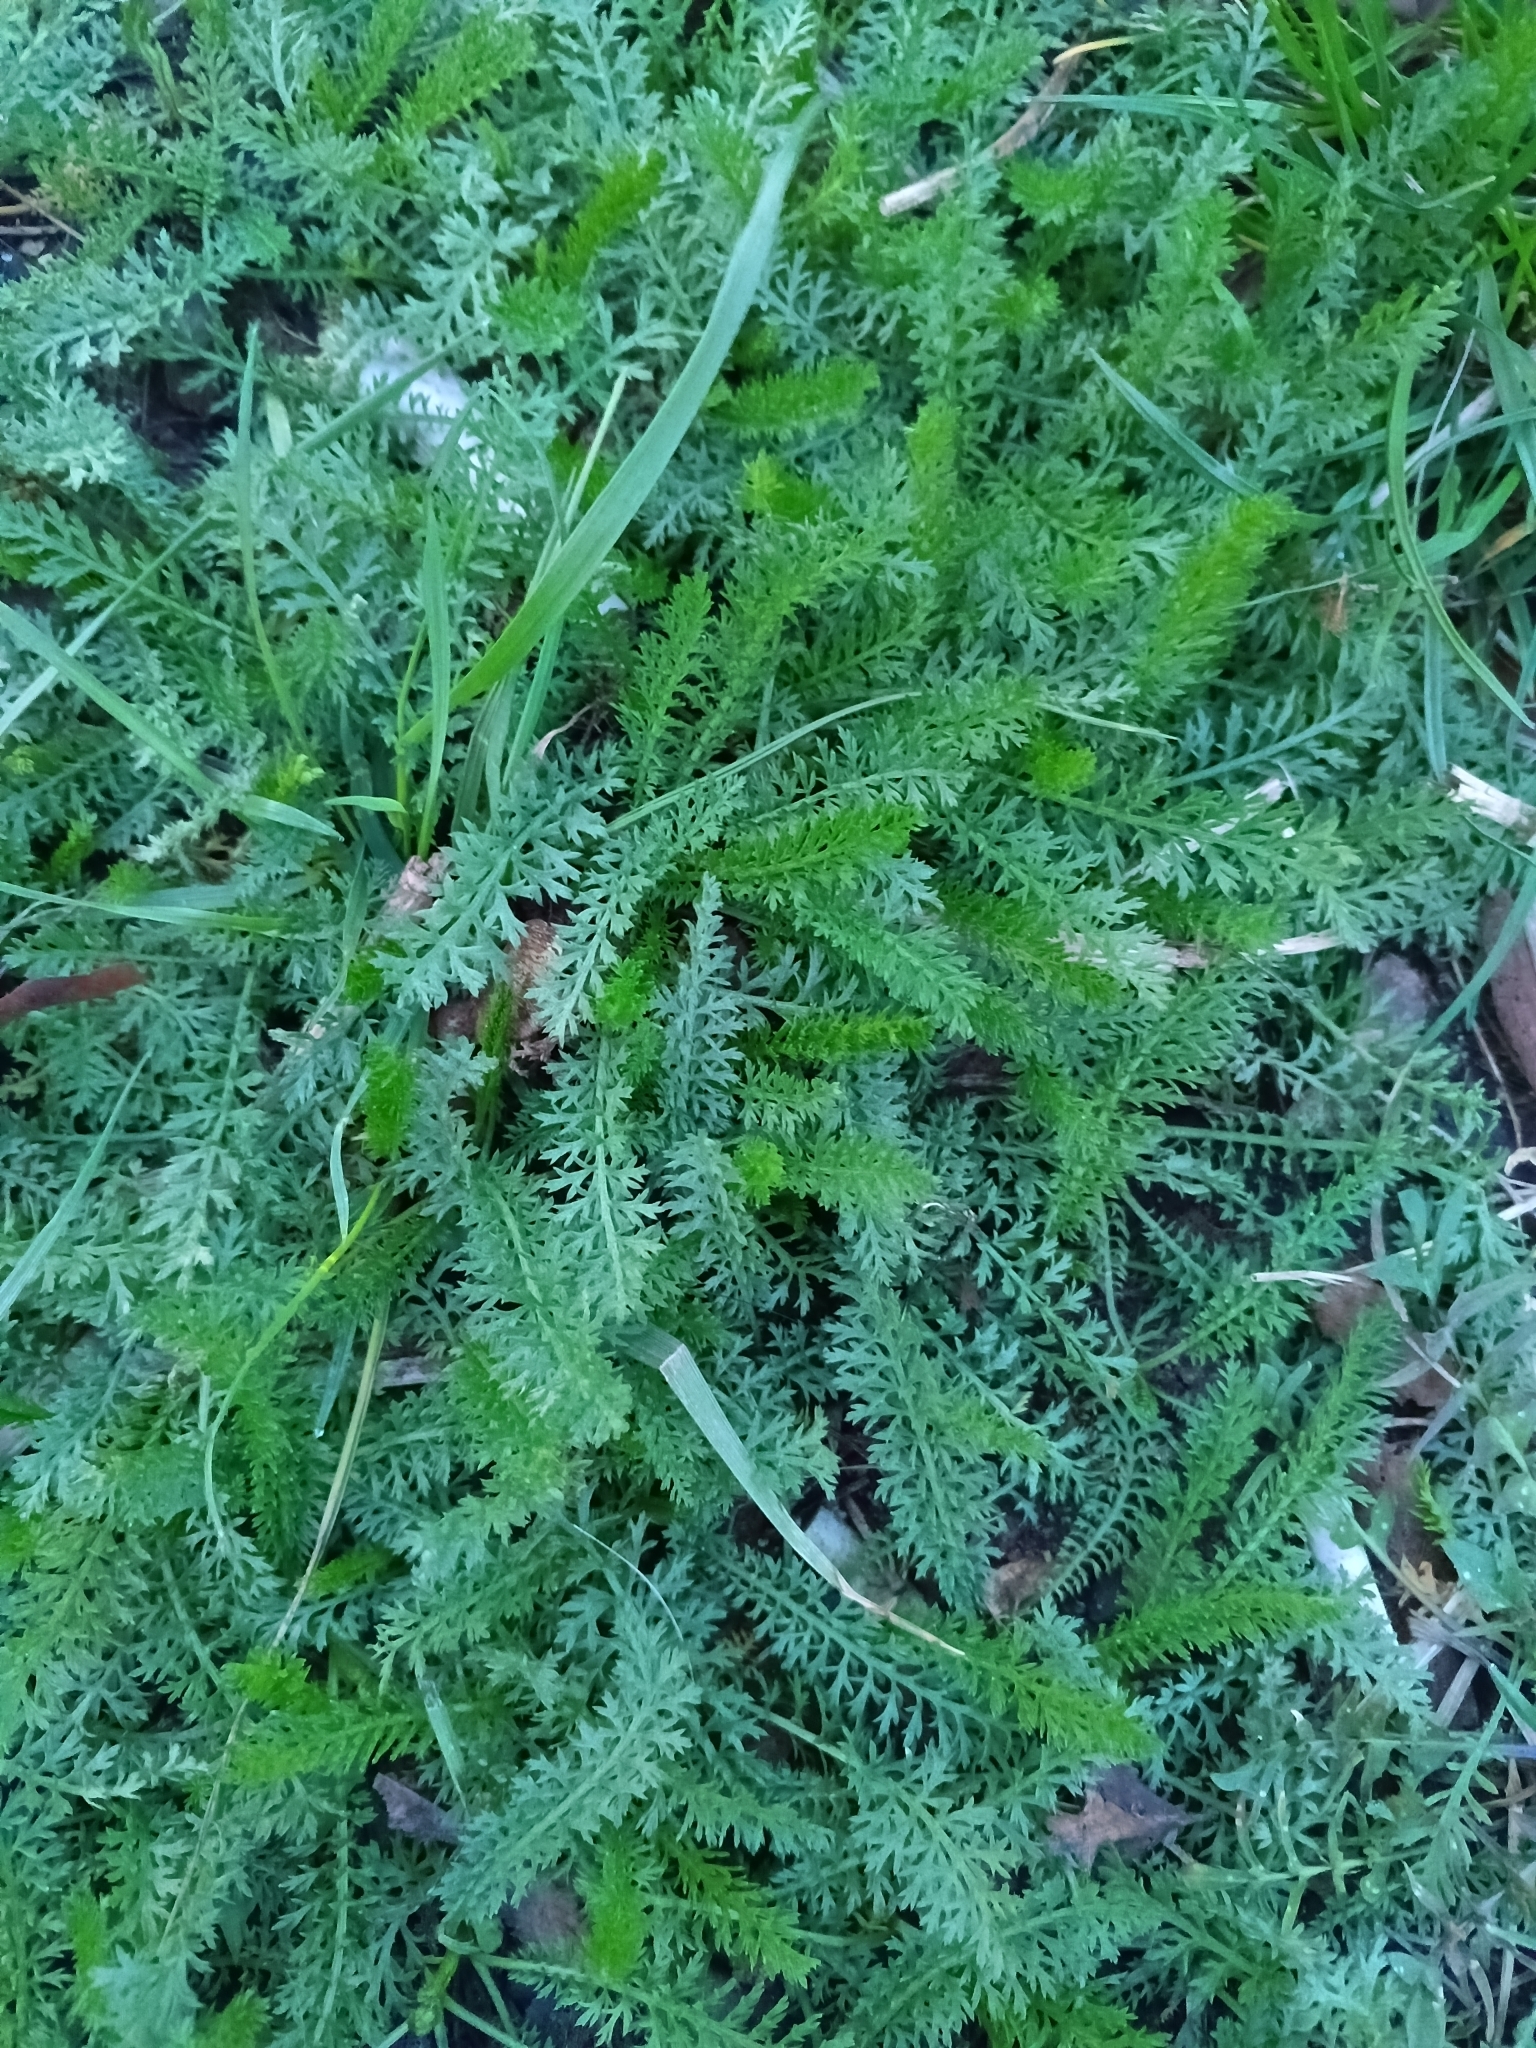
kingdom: Plantae
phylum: Tracheophyta
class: Magnoliopsida
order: Asterales
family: Asteraceae
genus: Achillea
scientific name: Achillea millefolium
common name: Yarrow
